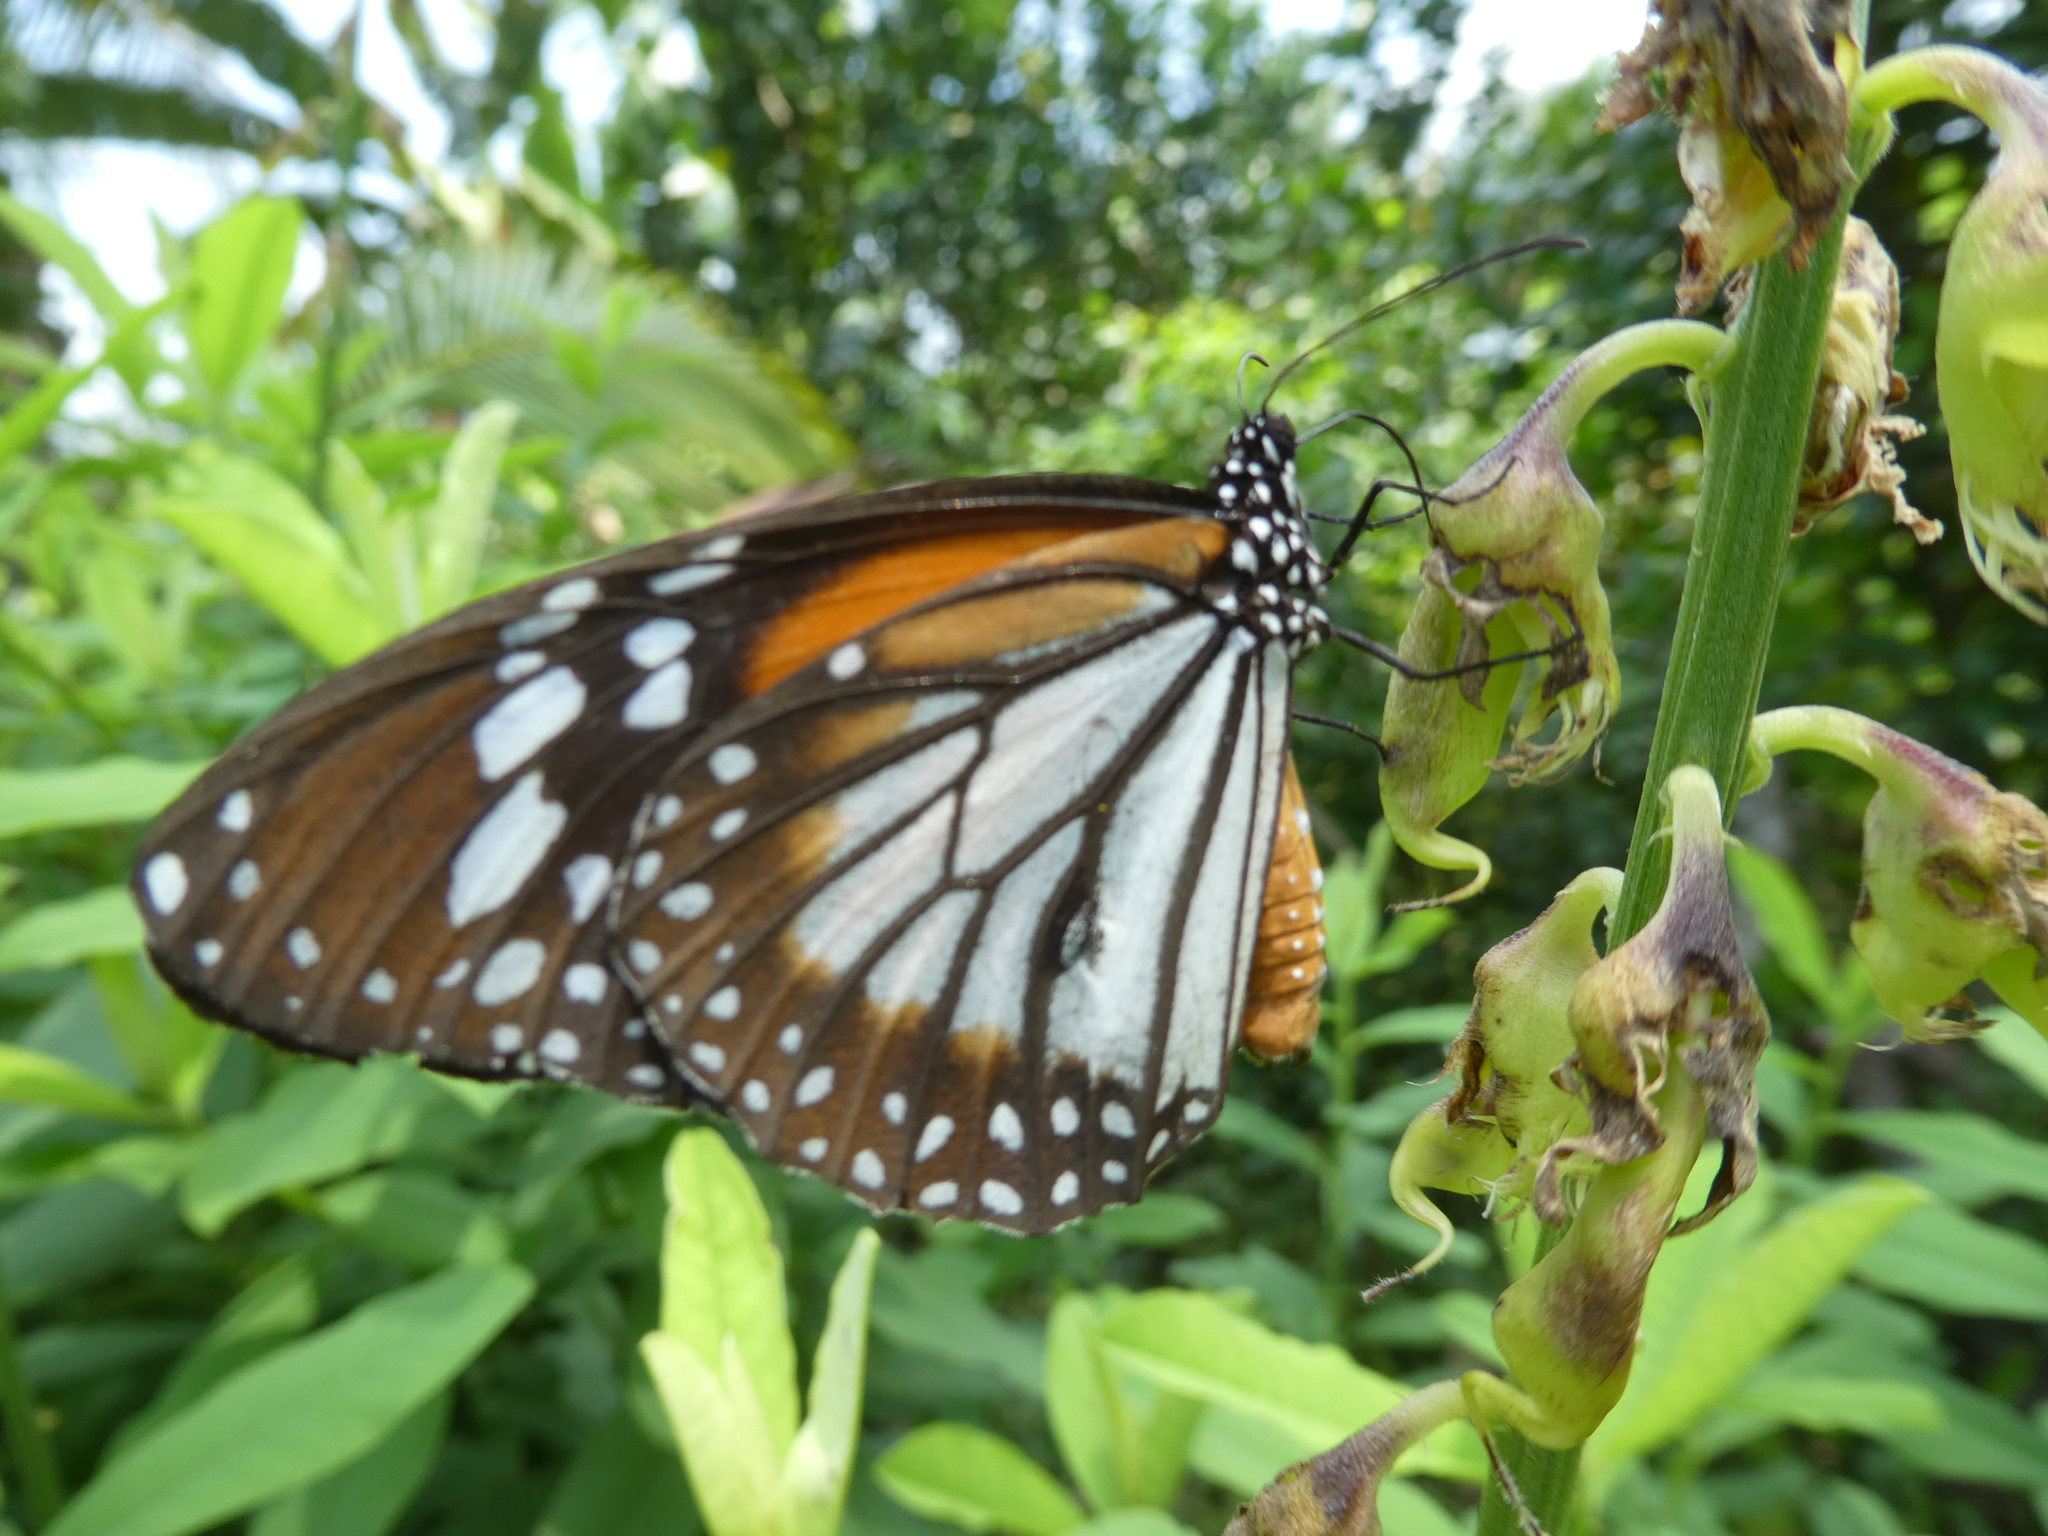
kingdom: Animalia
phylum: Arthropoda
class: Insecta
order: Lepidoptera
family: Nymphalidae
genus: Danaus
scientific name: Danaus melanippus
